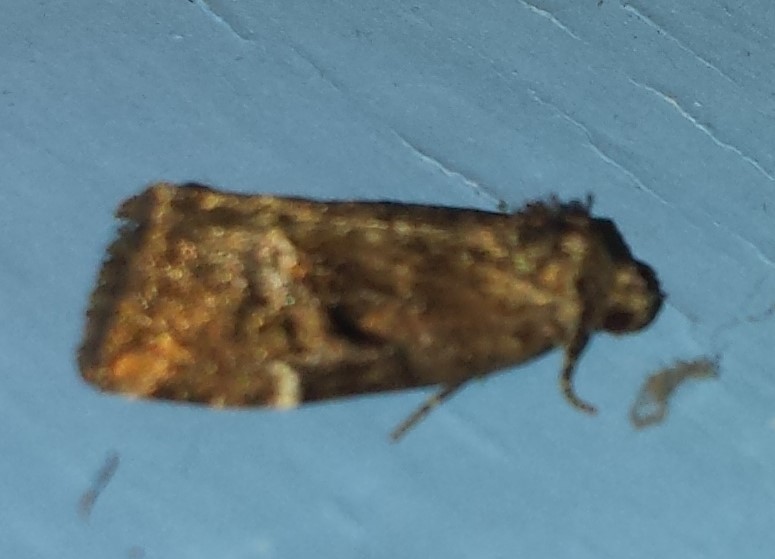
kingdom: Animalia
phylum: Arthropoda
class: Insecta
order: Lepidoptera
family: Noctuidae
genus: Elaphria
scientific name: Elaphria versicolor
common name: Fir harlequin
